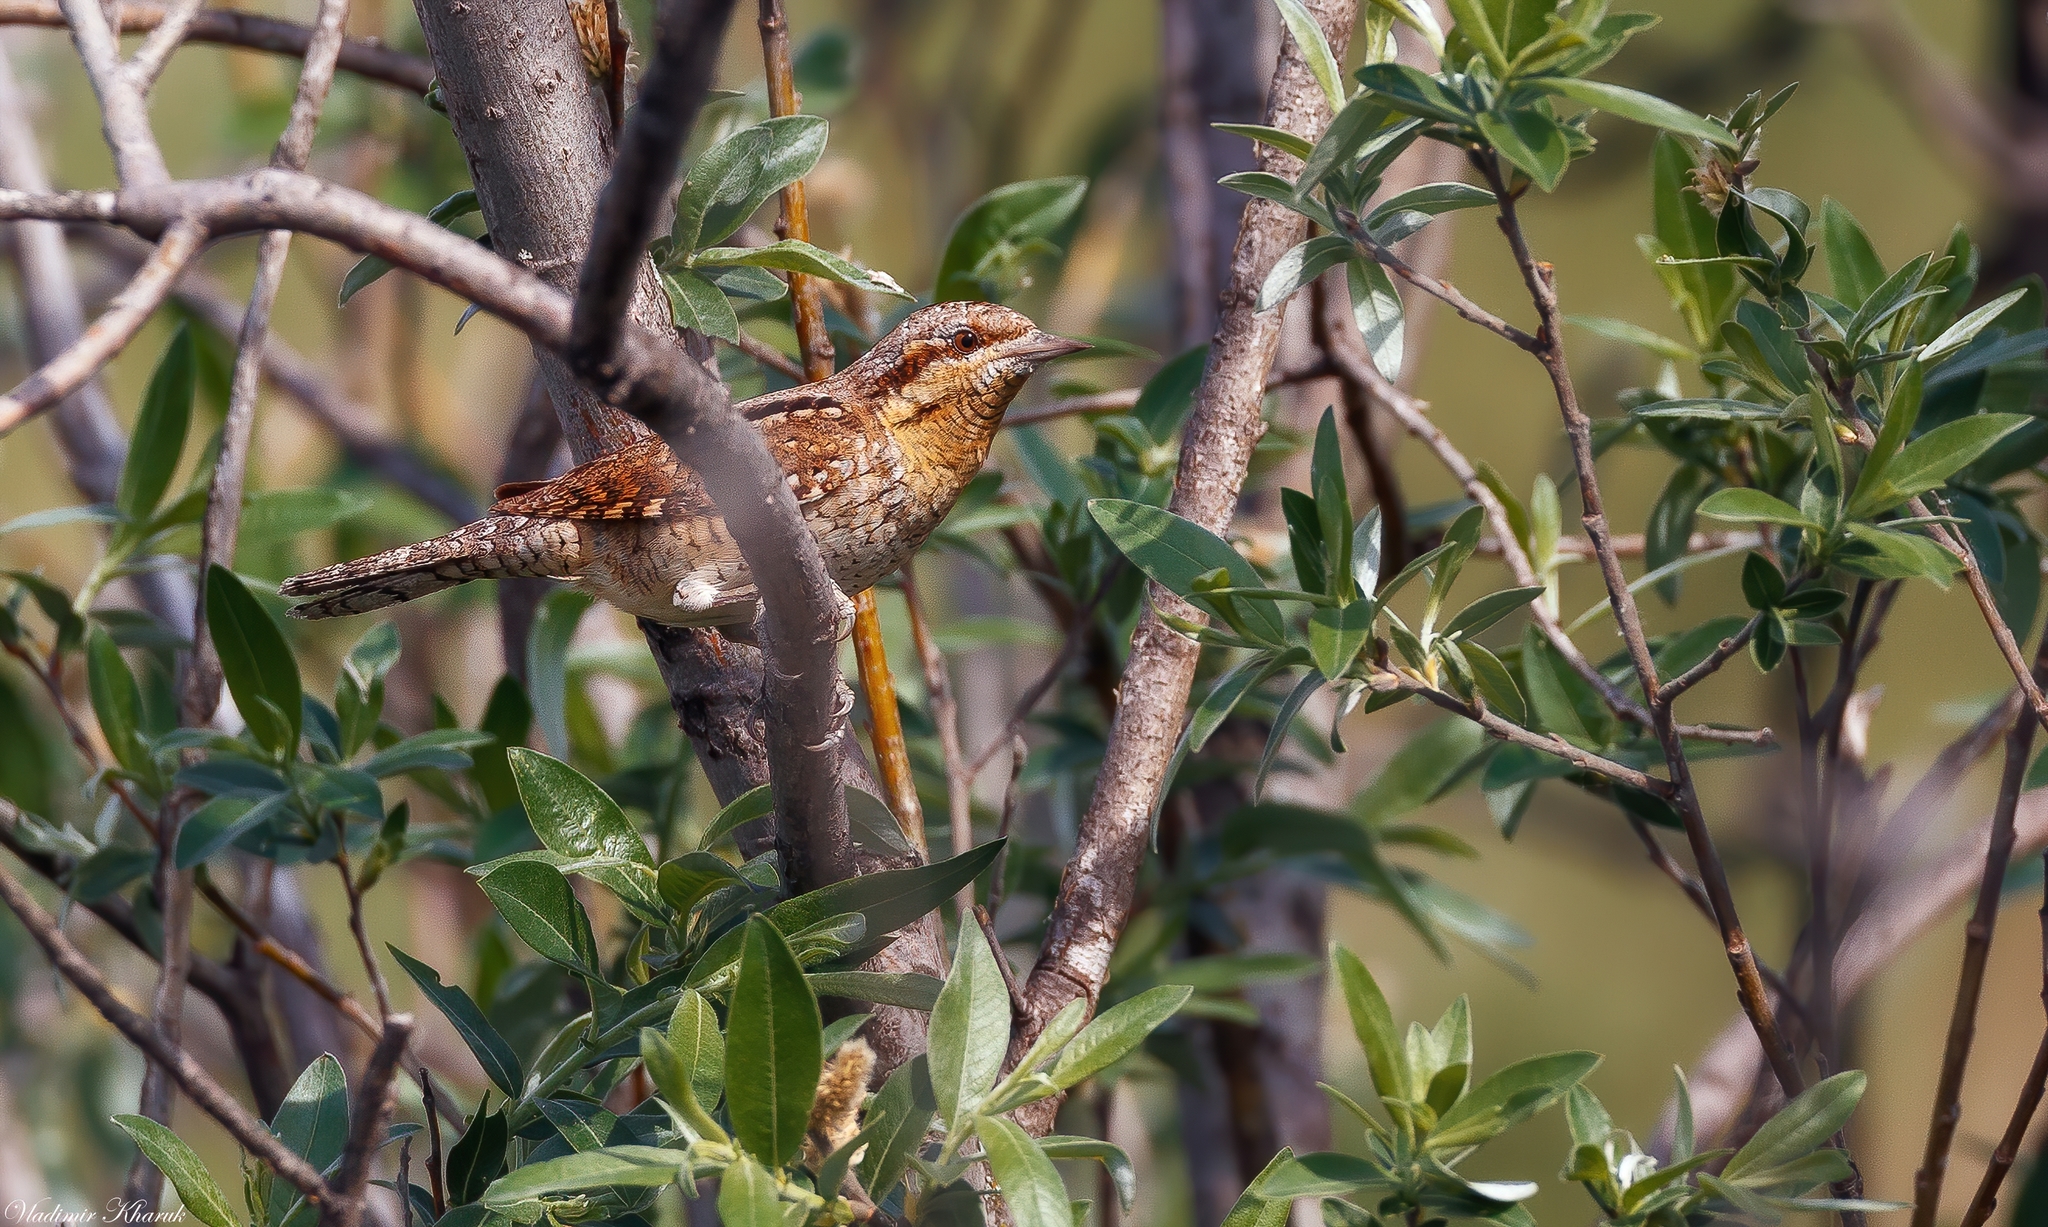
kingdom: Animalia
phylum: Chordata
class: Aves
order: Piciformes
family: Picidae
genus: Jynx
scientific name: Jynx torquilla
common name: Eurasian wryneck
